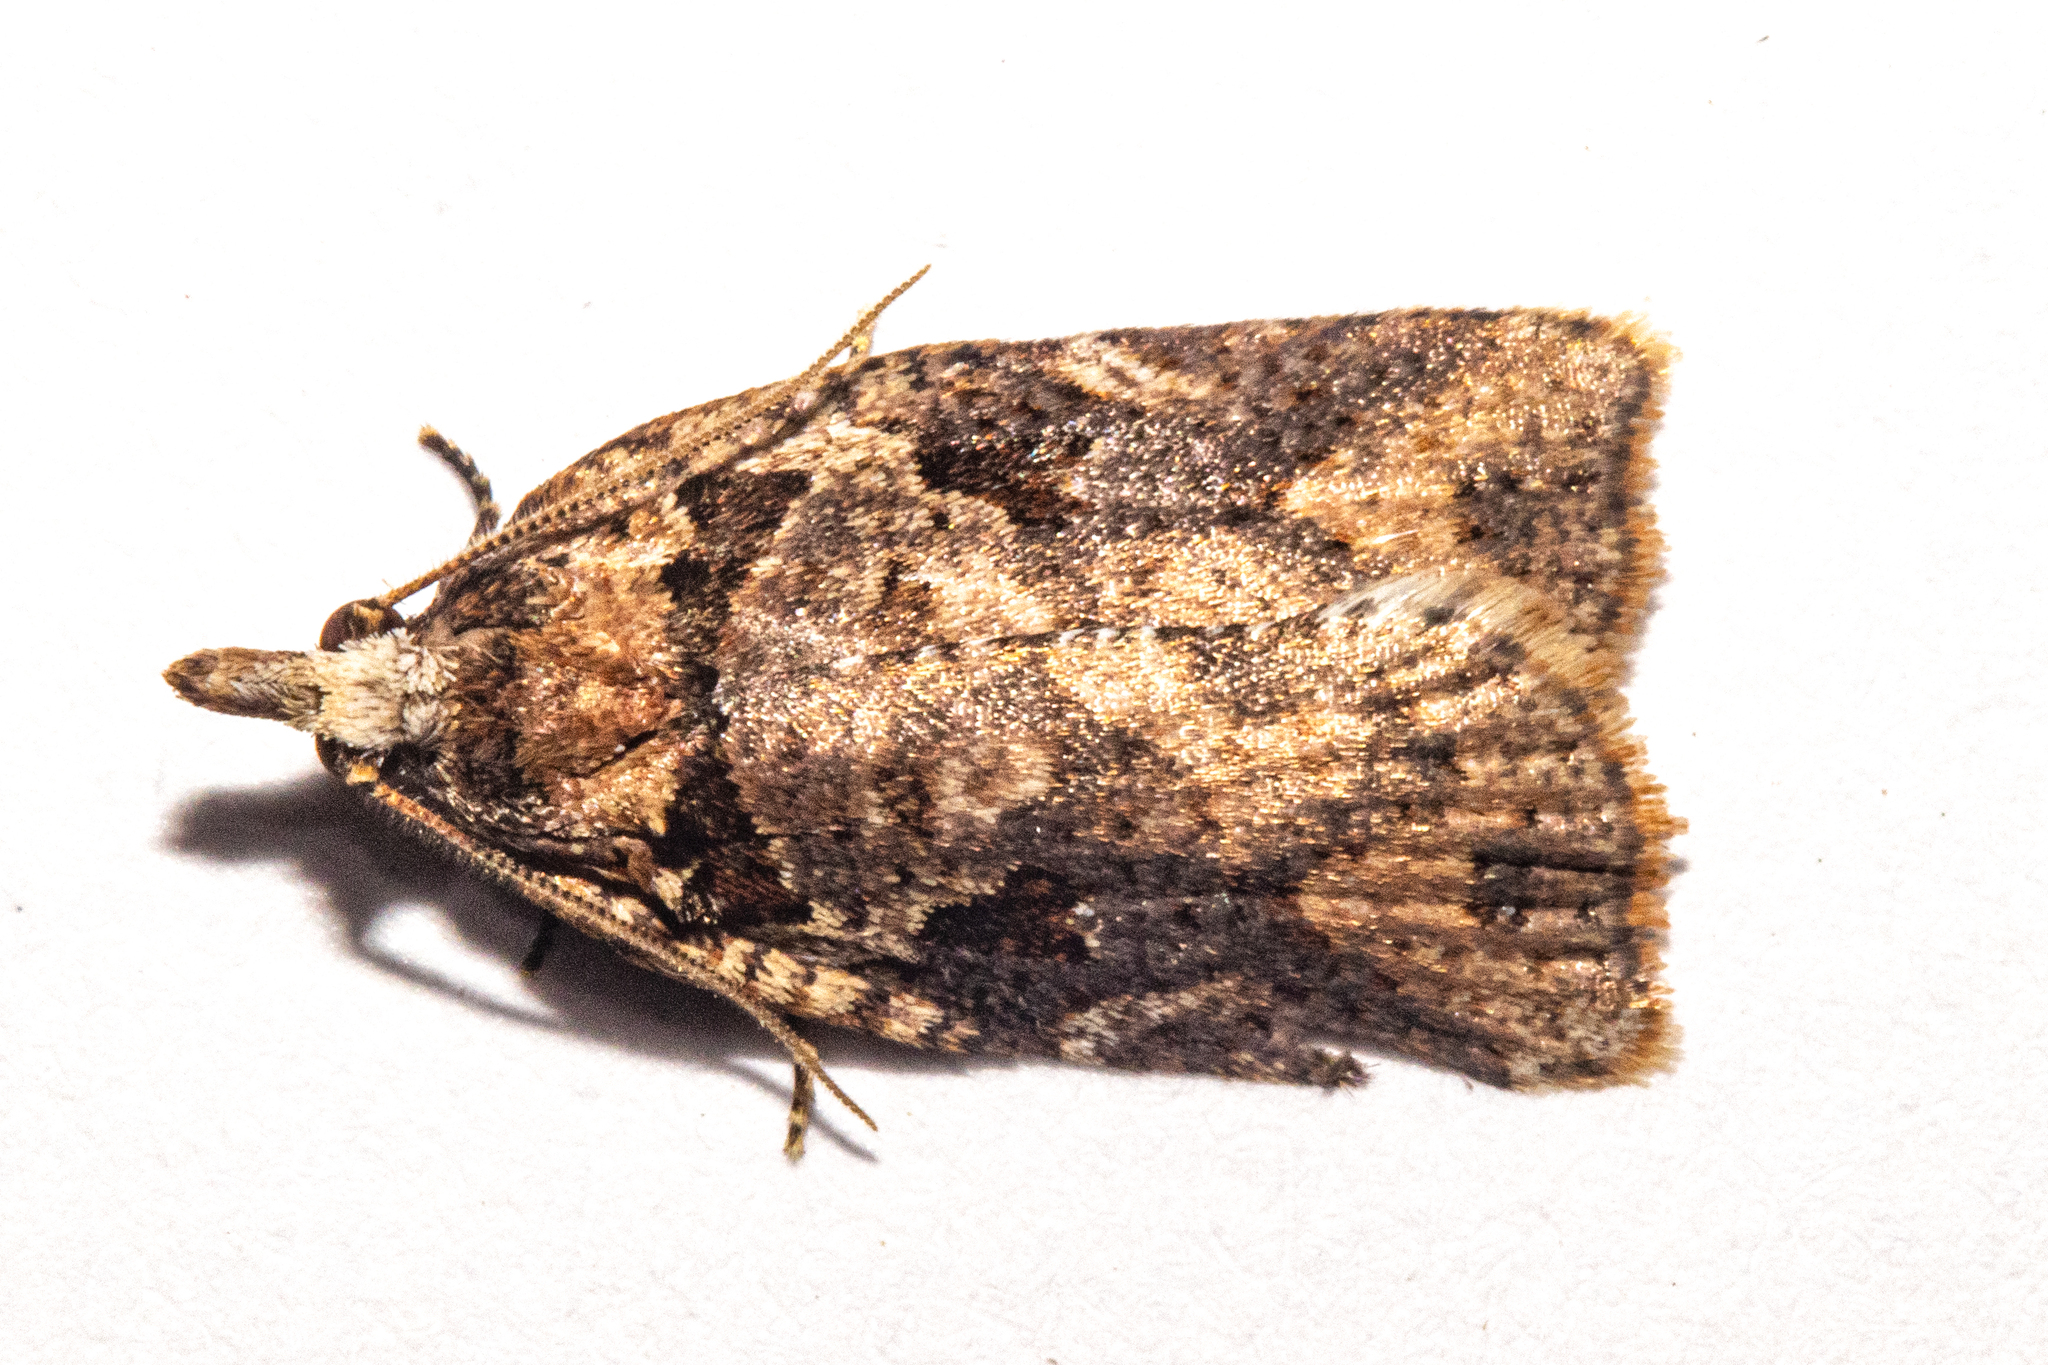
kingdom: Animalia
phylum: Arthropoda
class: Insecta
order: Lepidoptera
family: Tortricidae
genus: Ctenopseustis
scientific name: Ctenopseustis obliquana
